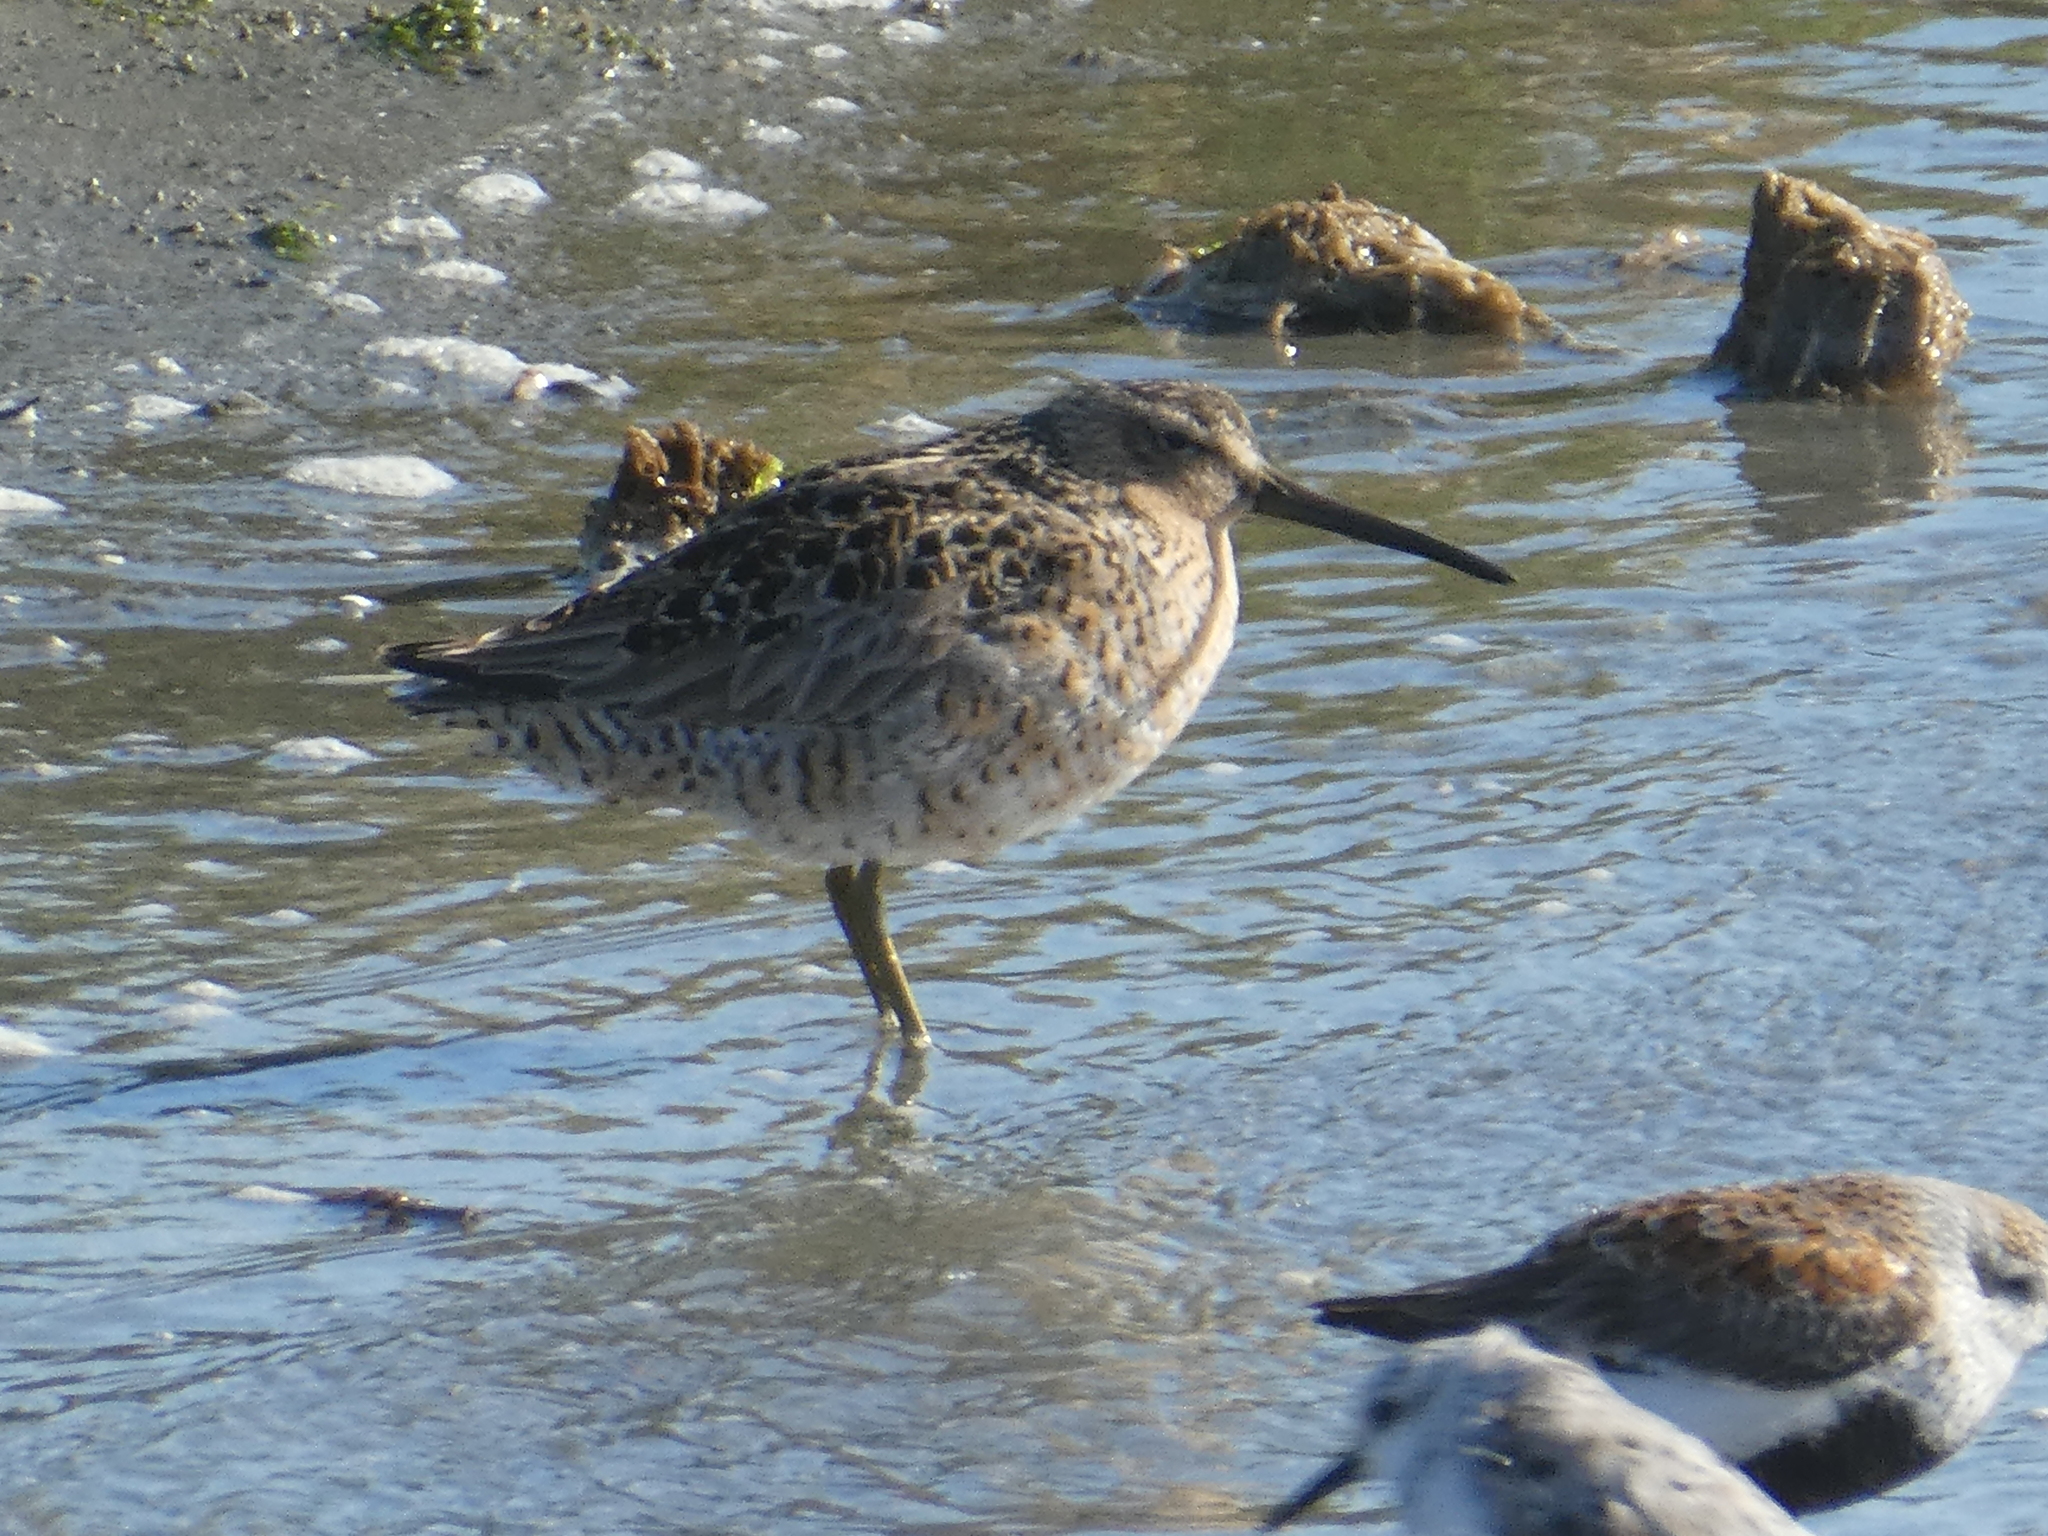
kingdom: Animalia
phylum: Chordata
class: Aves
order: Charadriiformes
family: Scolopacidae
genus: Limnodromus
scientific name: Limnodromus griseus
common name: Short-billed dowitcher
